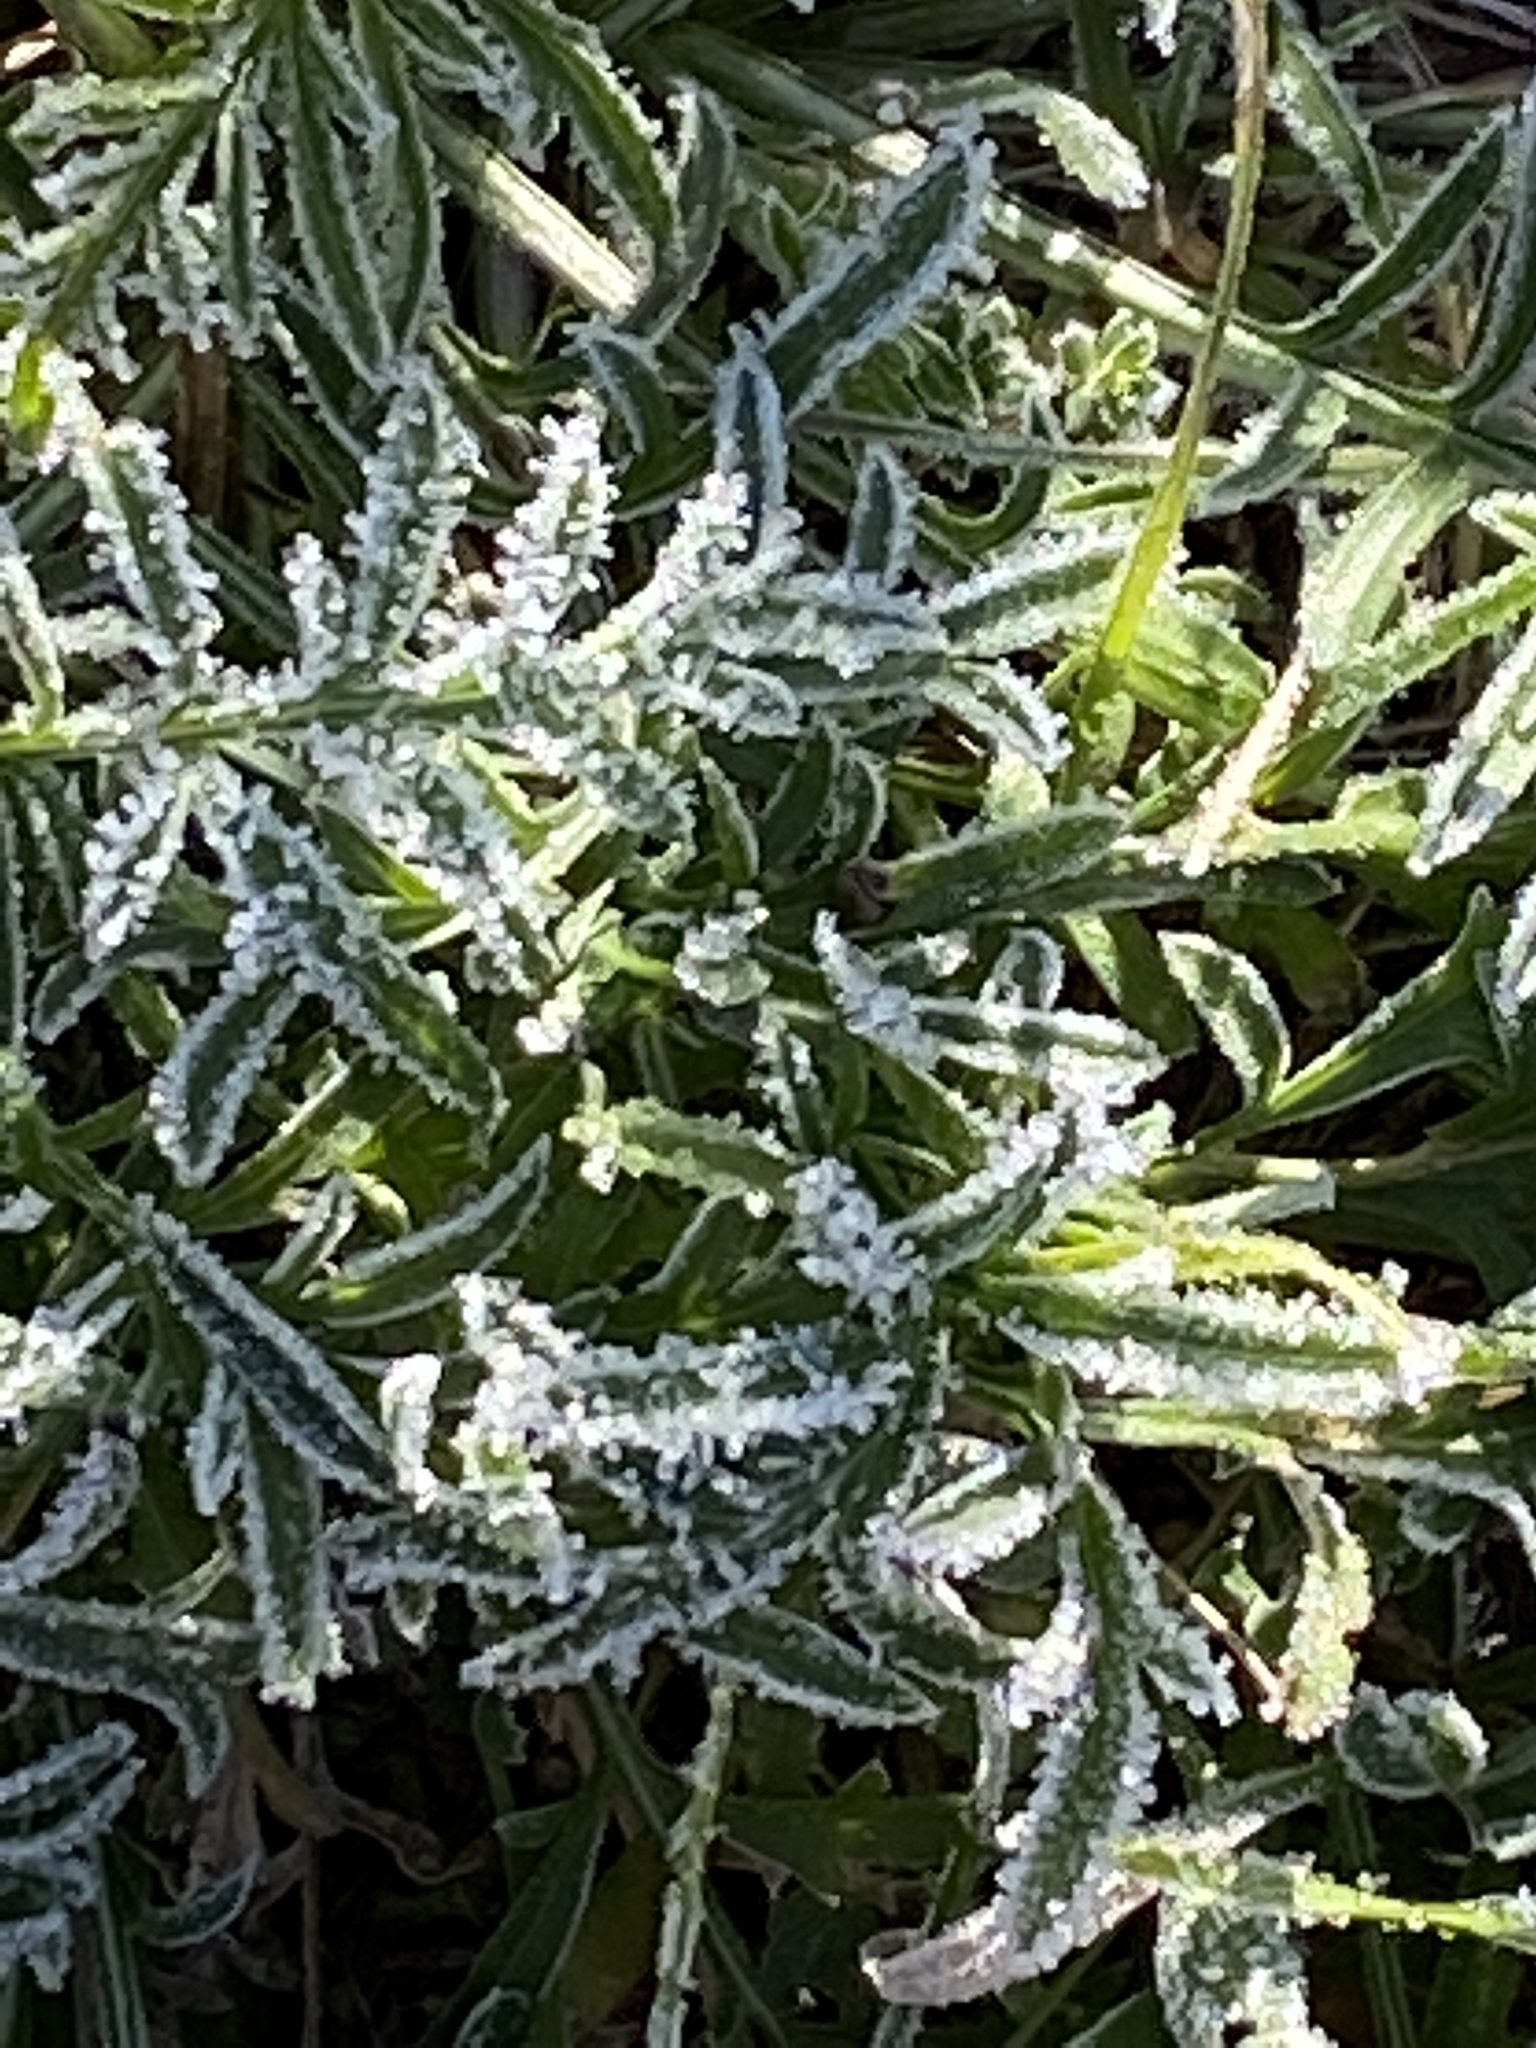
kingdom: Plantae
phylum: Tracheophyta
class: Magnoliopsida
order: Asterales
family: Asteraceae
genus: Ratibida
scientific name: Ratibida columnifera
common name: Prairie coneflower
